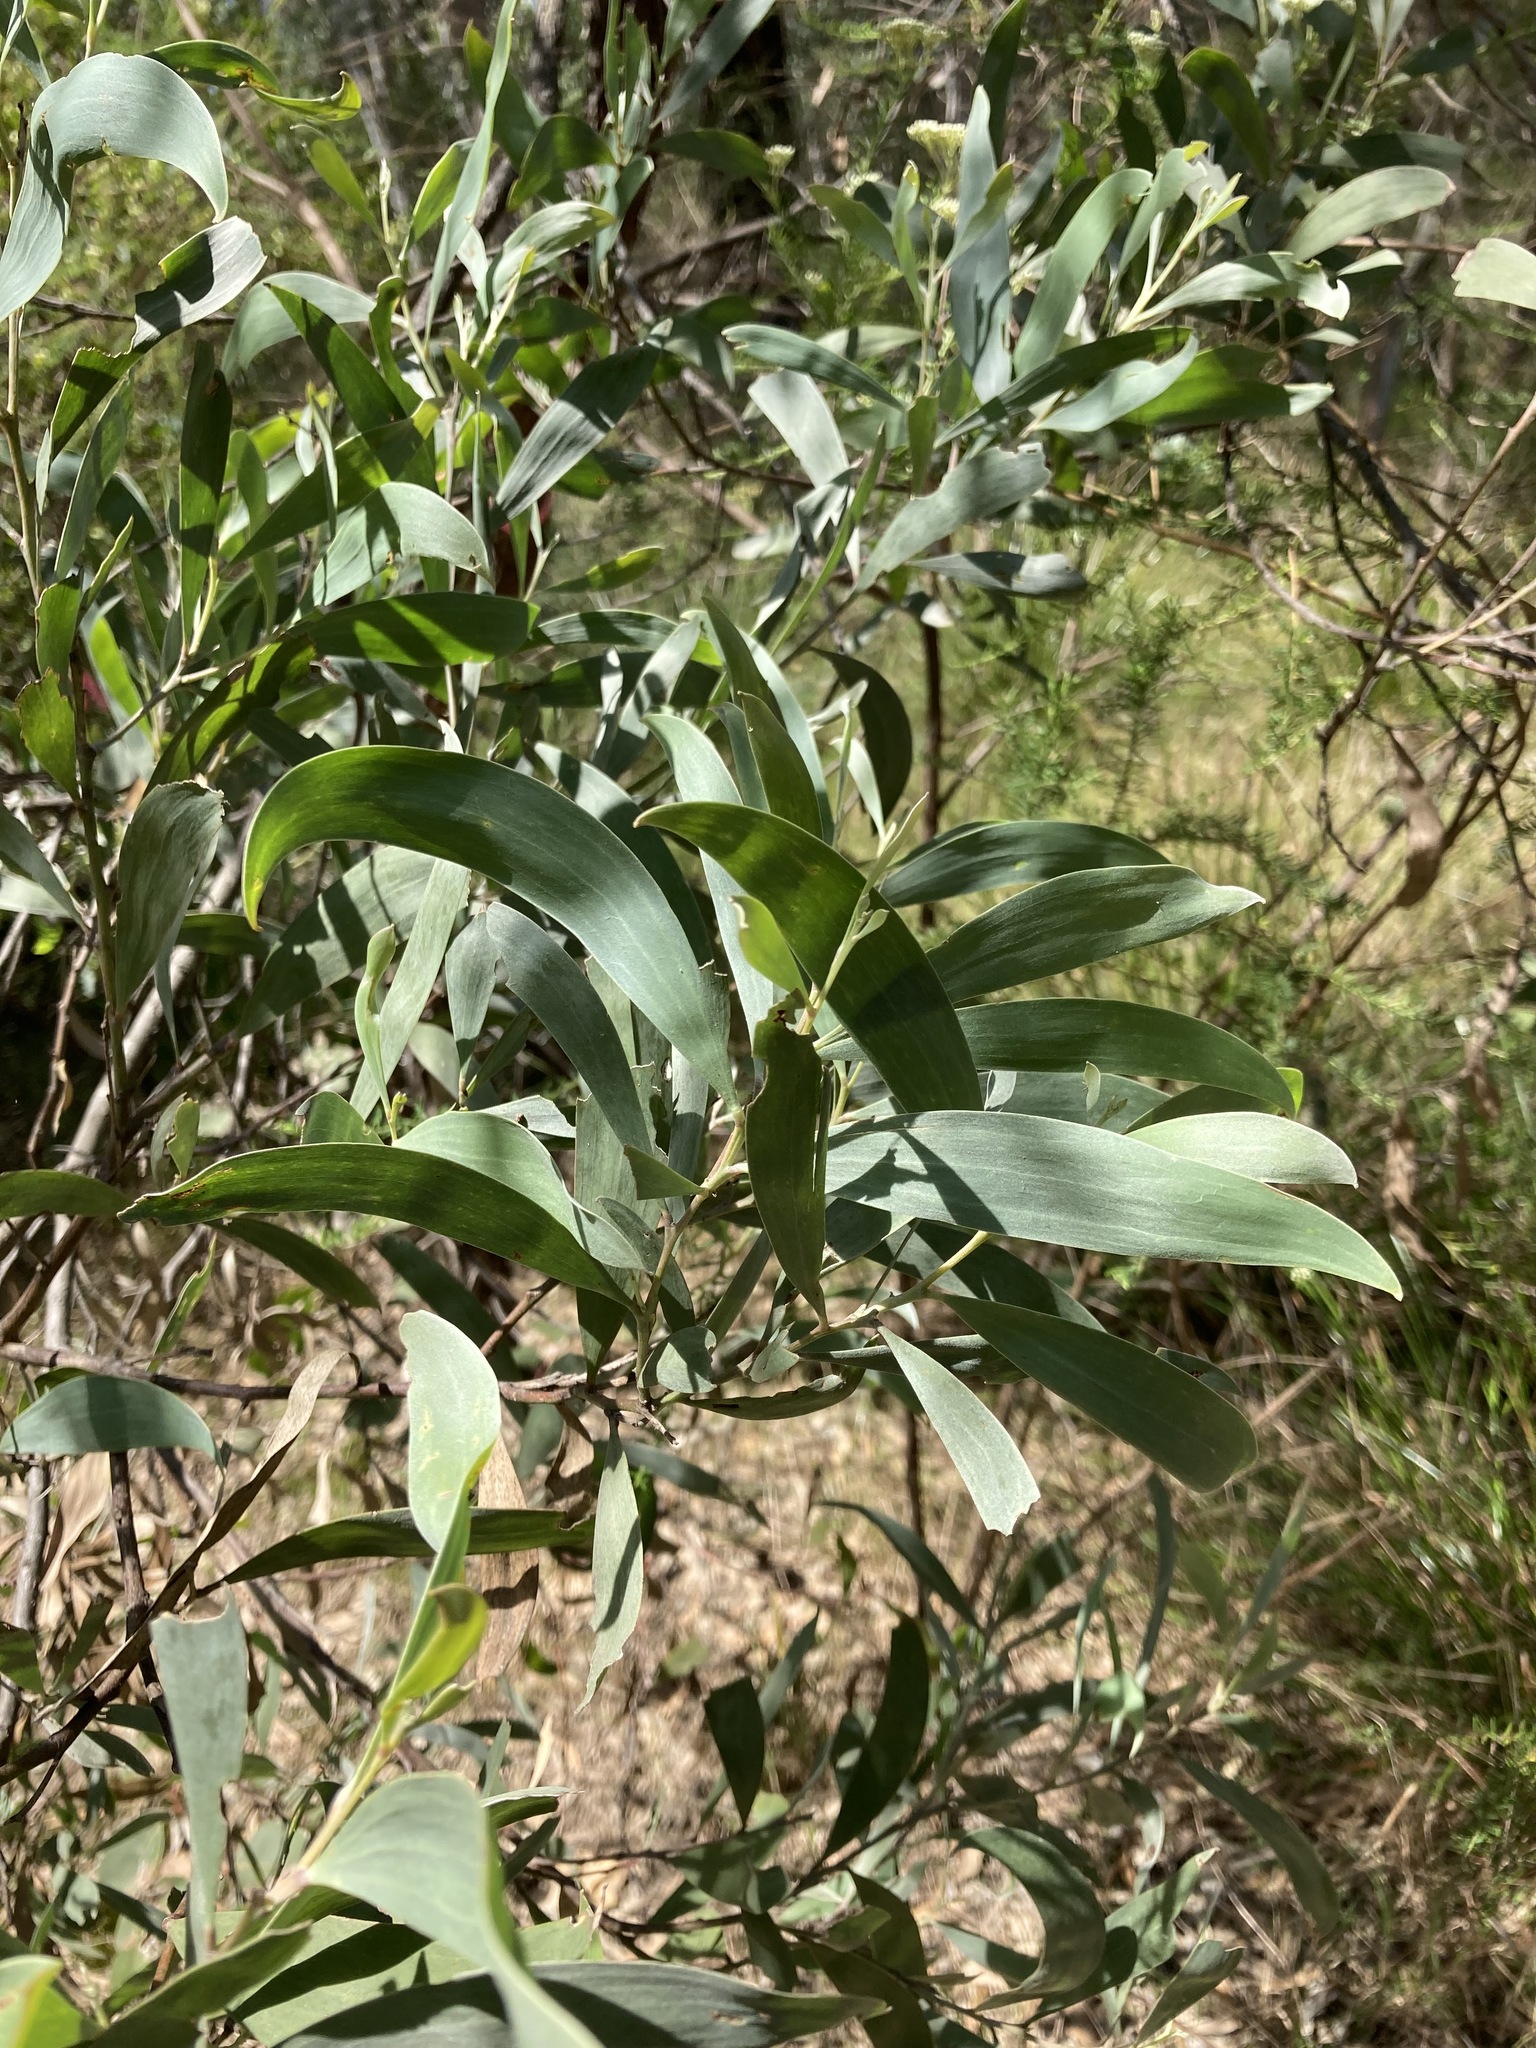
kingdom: Plantae
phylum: Tracheophyta
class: Magnoliopsida
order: Fabales
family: Fabaceae
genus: Acacia
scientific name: Acacia binervia
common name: Coast myall
